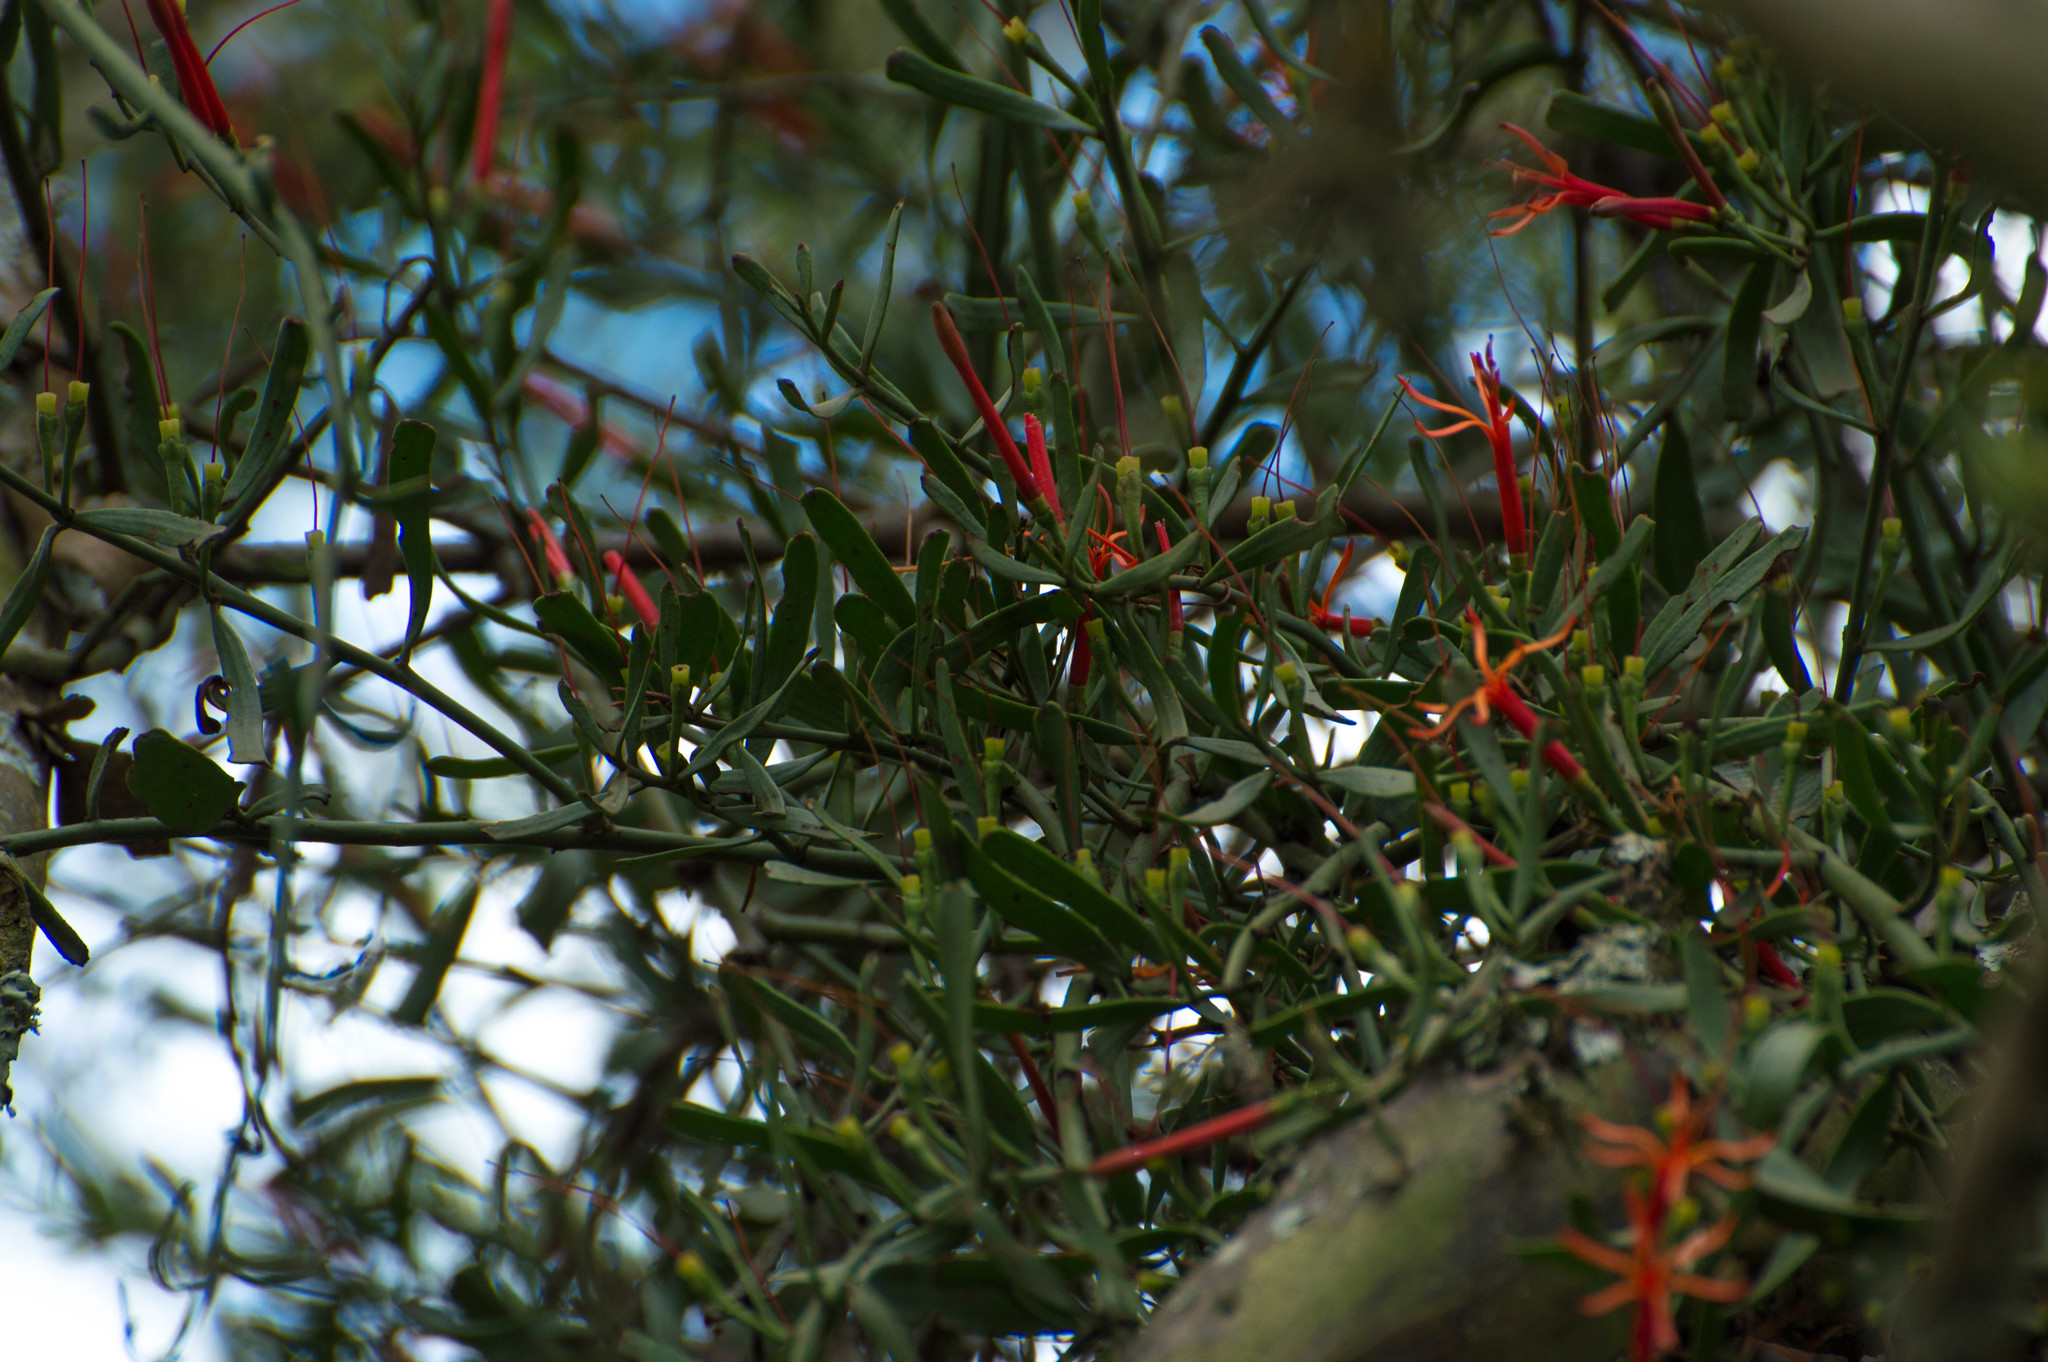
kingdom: Plantae
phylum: Tracheophyta
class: Magnoliopsida
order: Santalales
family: Loranthaceae
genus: Ligaria
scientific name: Ligaria cuneifolia
